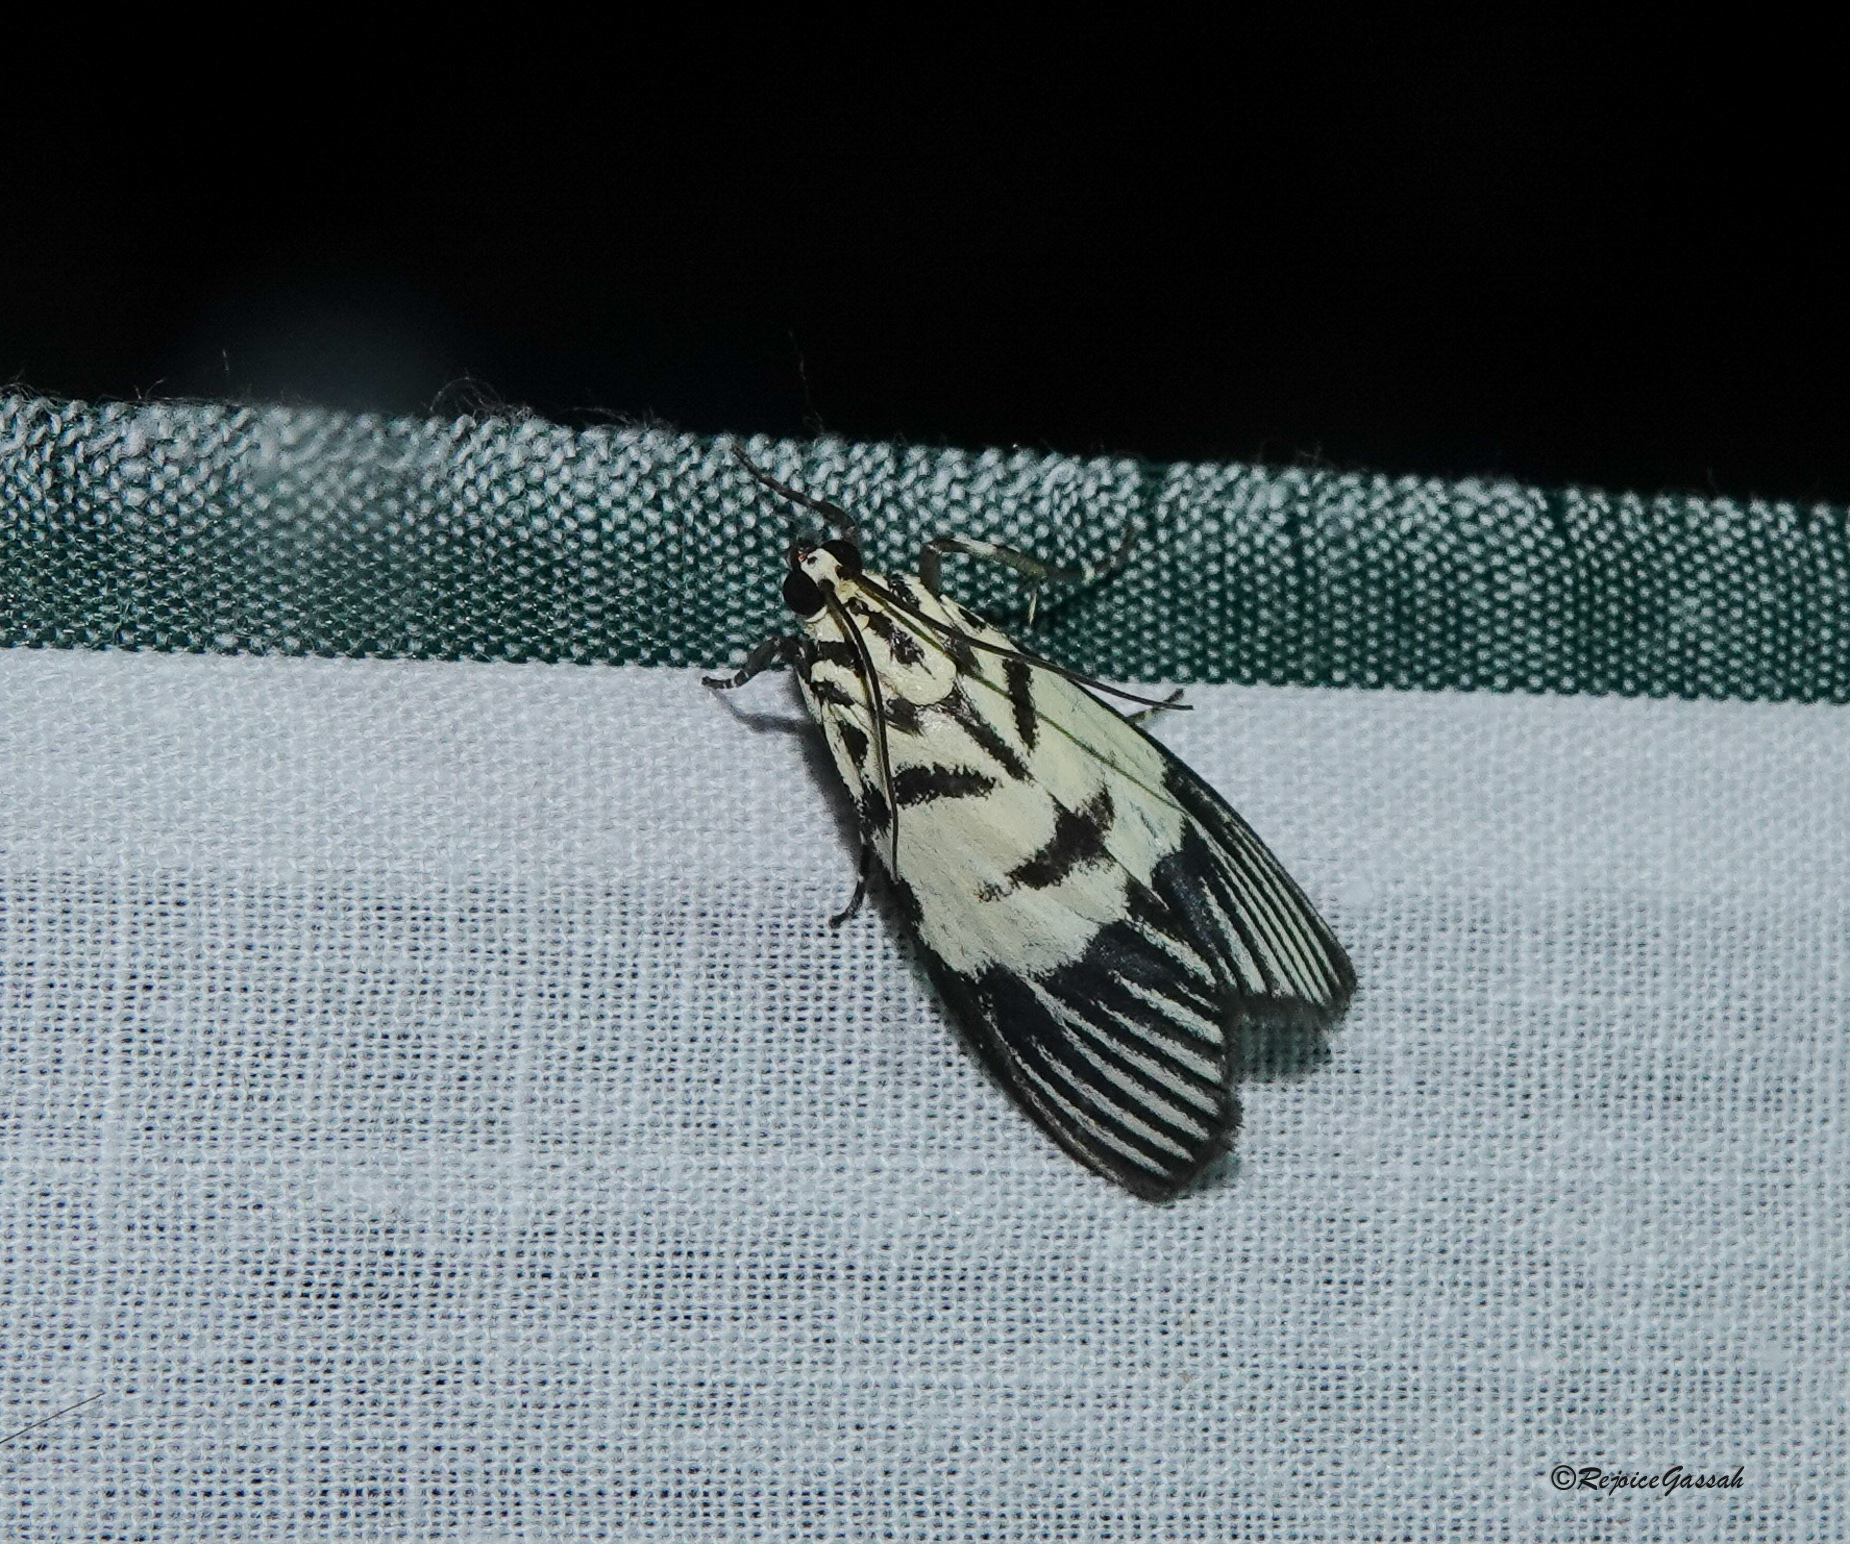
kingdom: Animalia
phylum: Arthropoda
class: Insecta
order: Lepidoptera
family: Crambidae
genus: Heortia
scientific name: Heortia vitessoides
